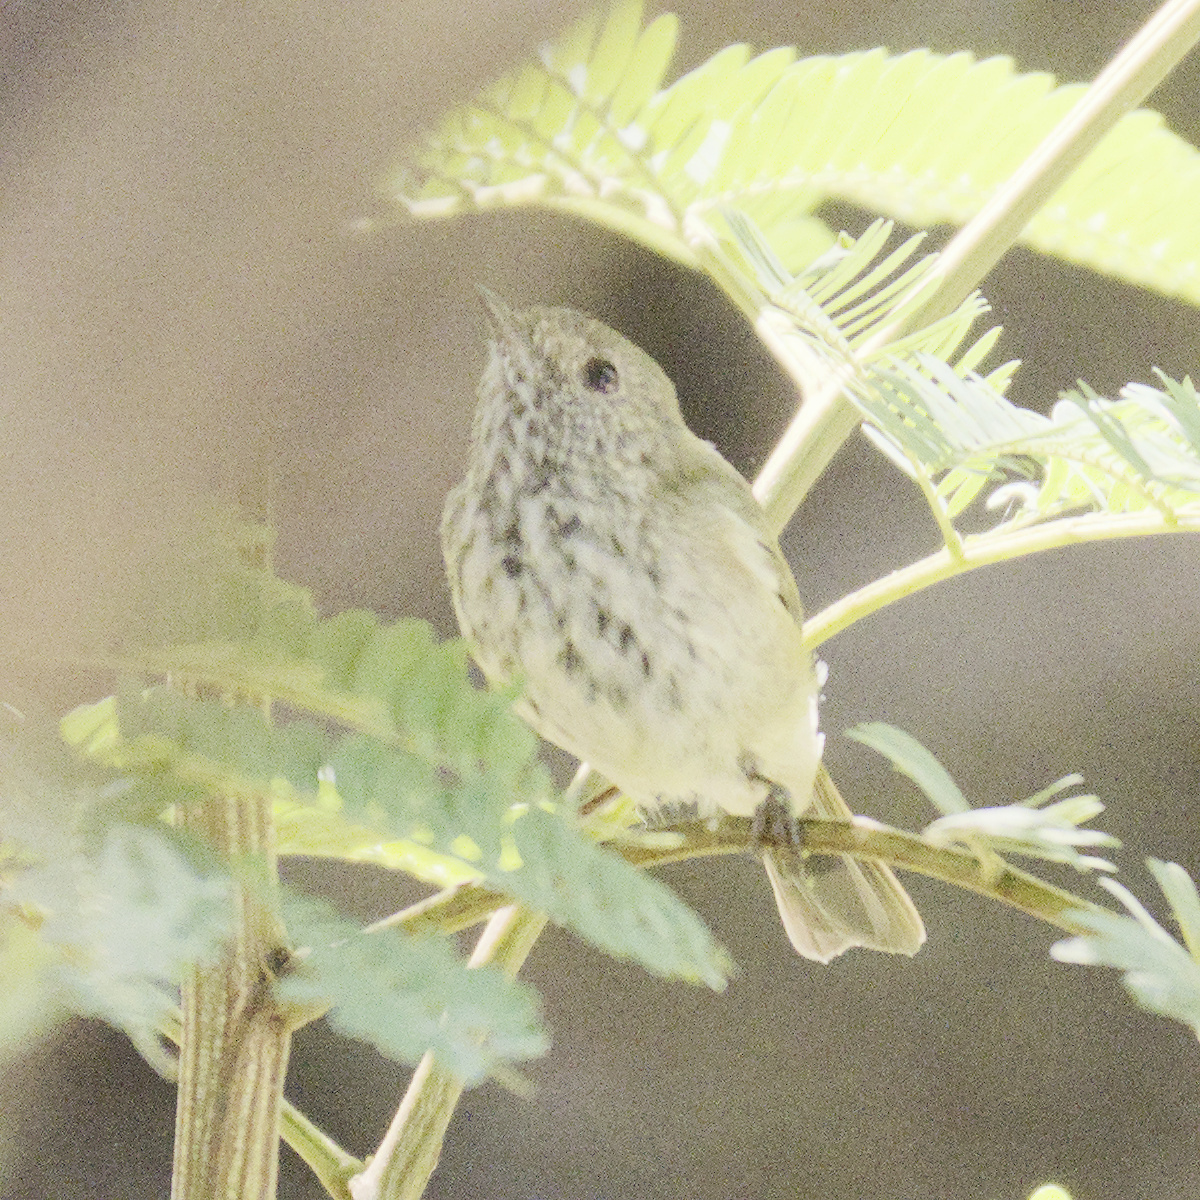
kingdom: Animalia
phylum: Chordata
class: Aves
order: Passeriformes
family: Acanthizidae
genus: Acanthiza
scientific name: Acanthiza pusilla
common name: Brown thornbill
